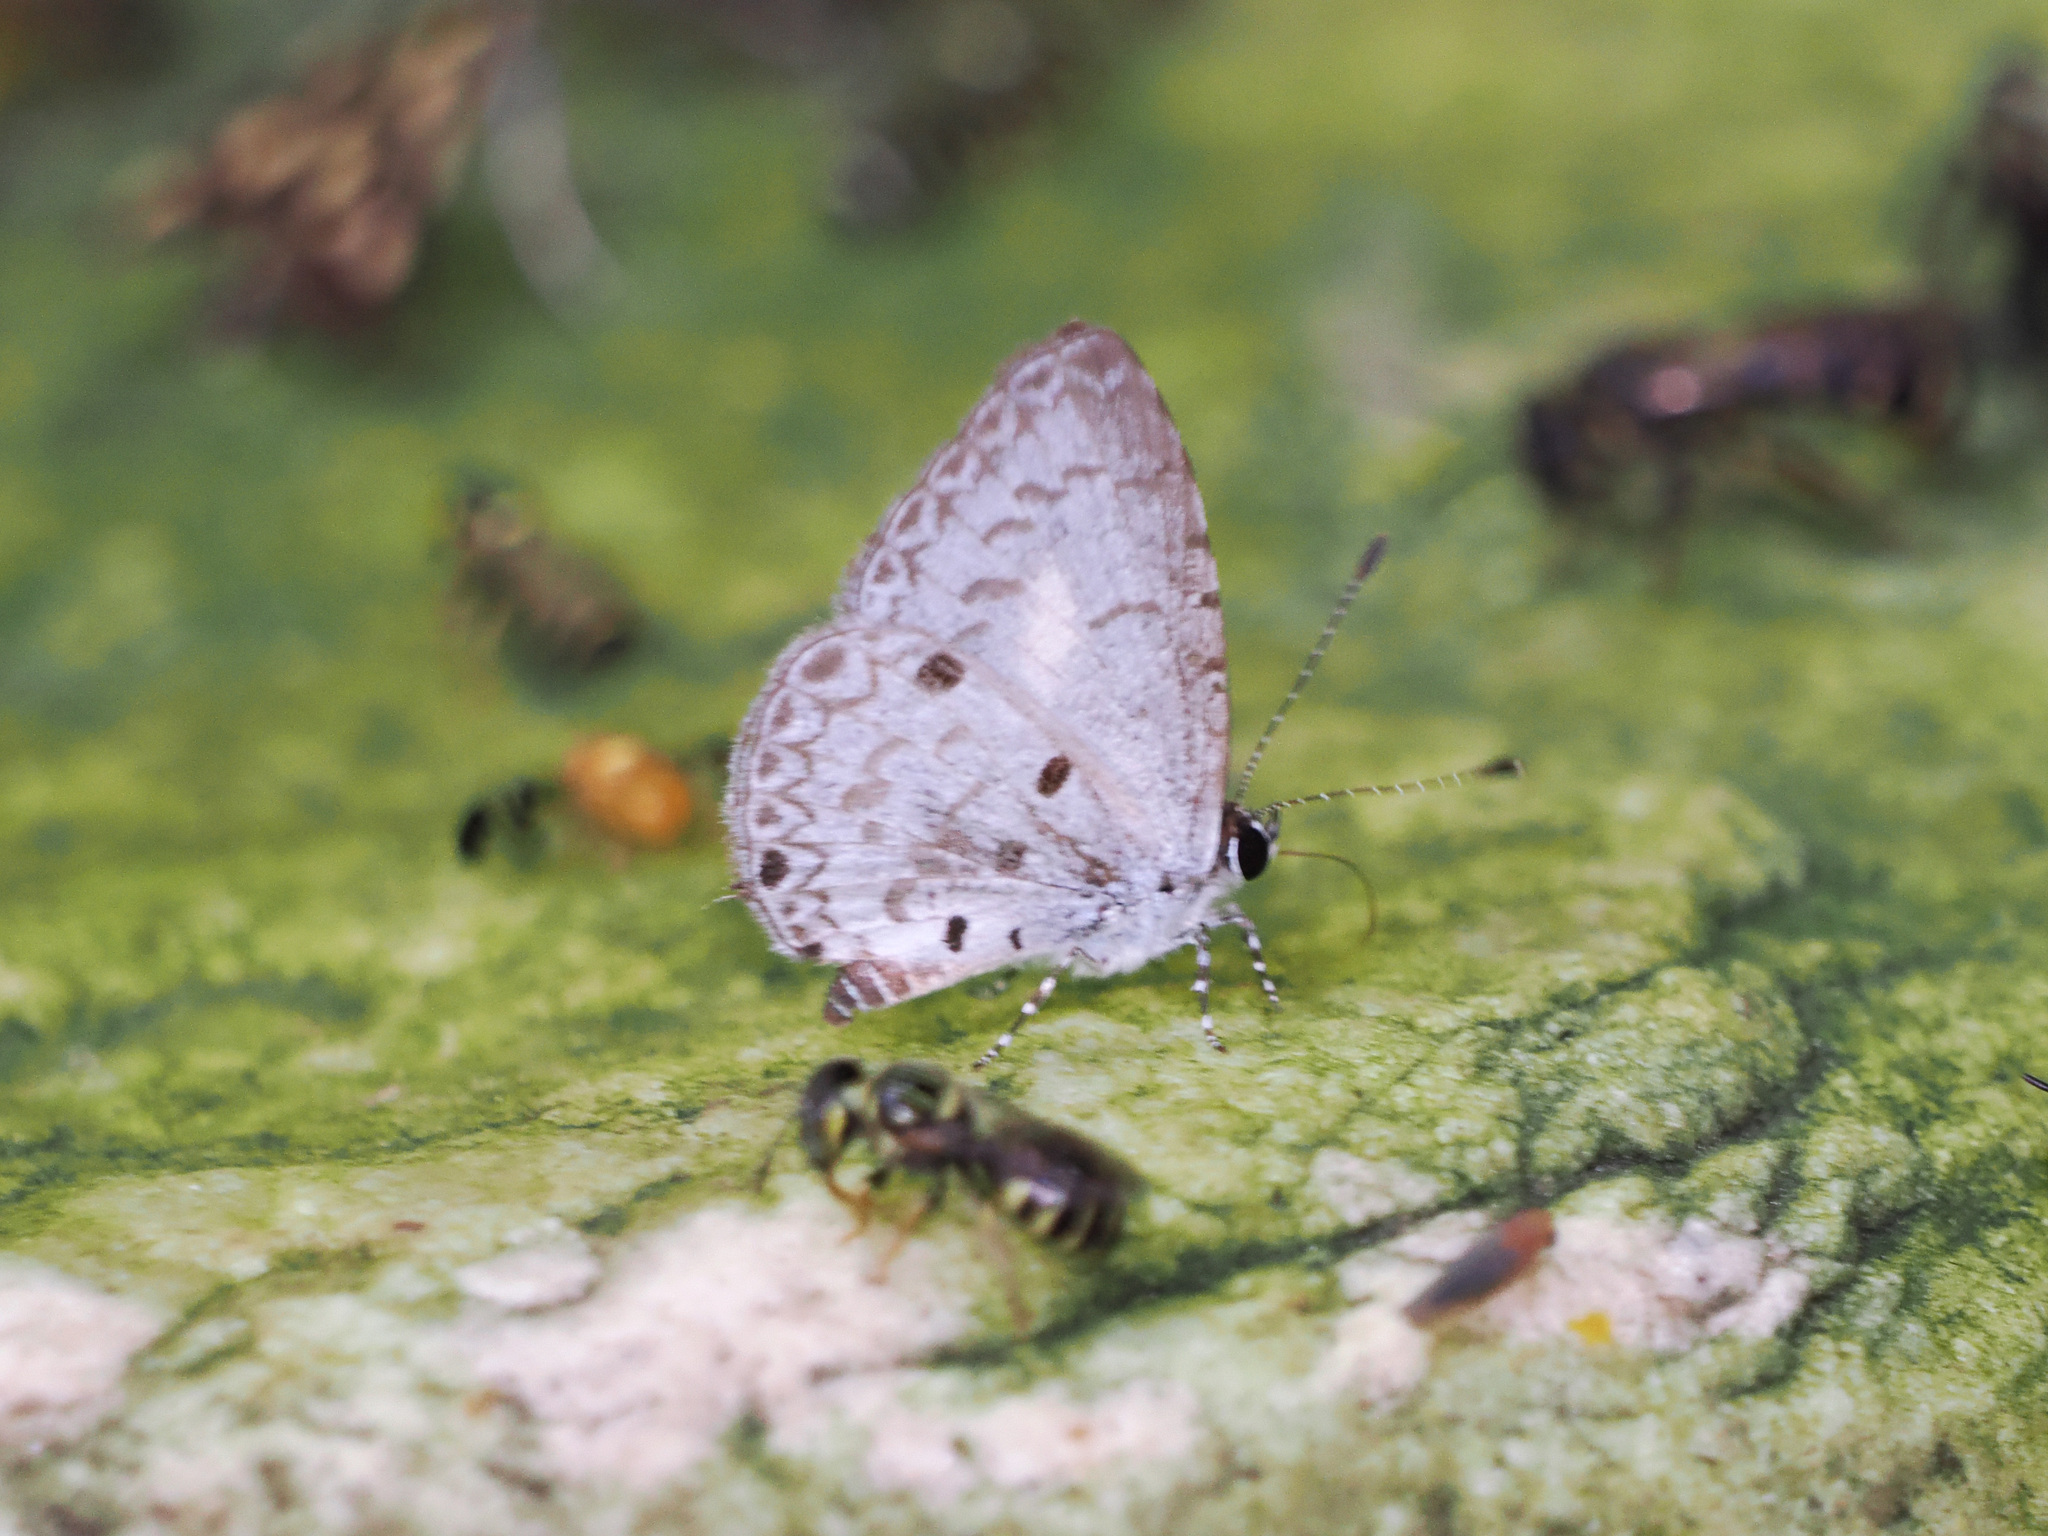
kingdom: Animalia
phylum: Arthropoda
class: Insecta
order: Lepidoptera
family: Lycaenidae
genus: Megisba
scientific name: Megisba malaya
